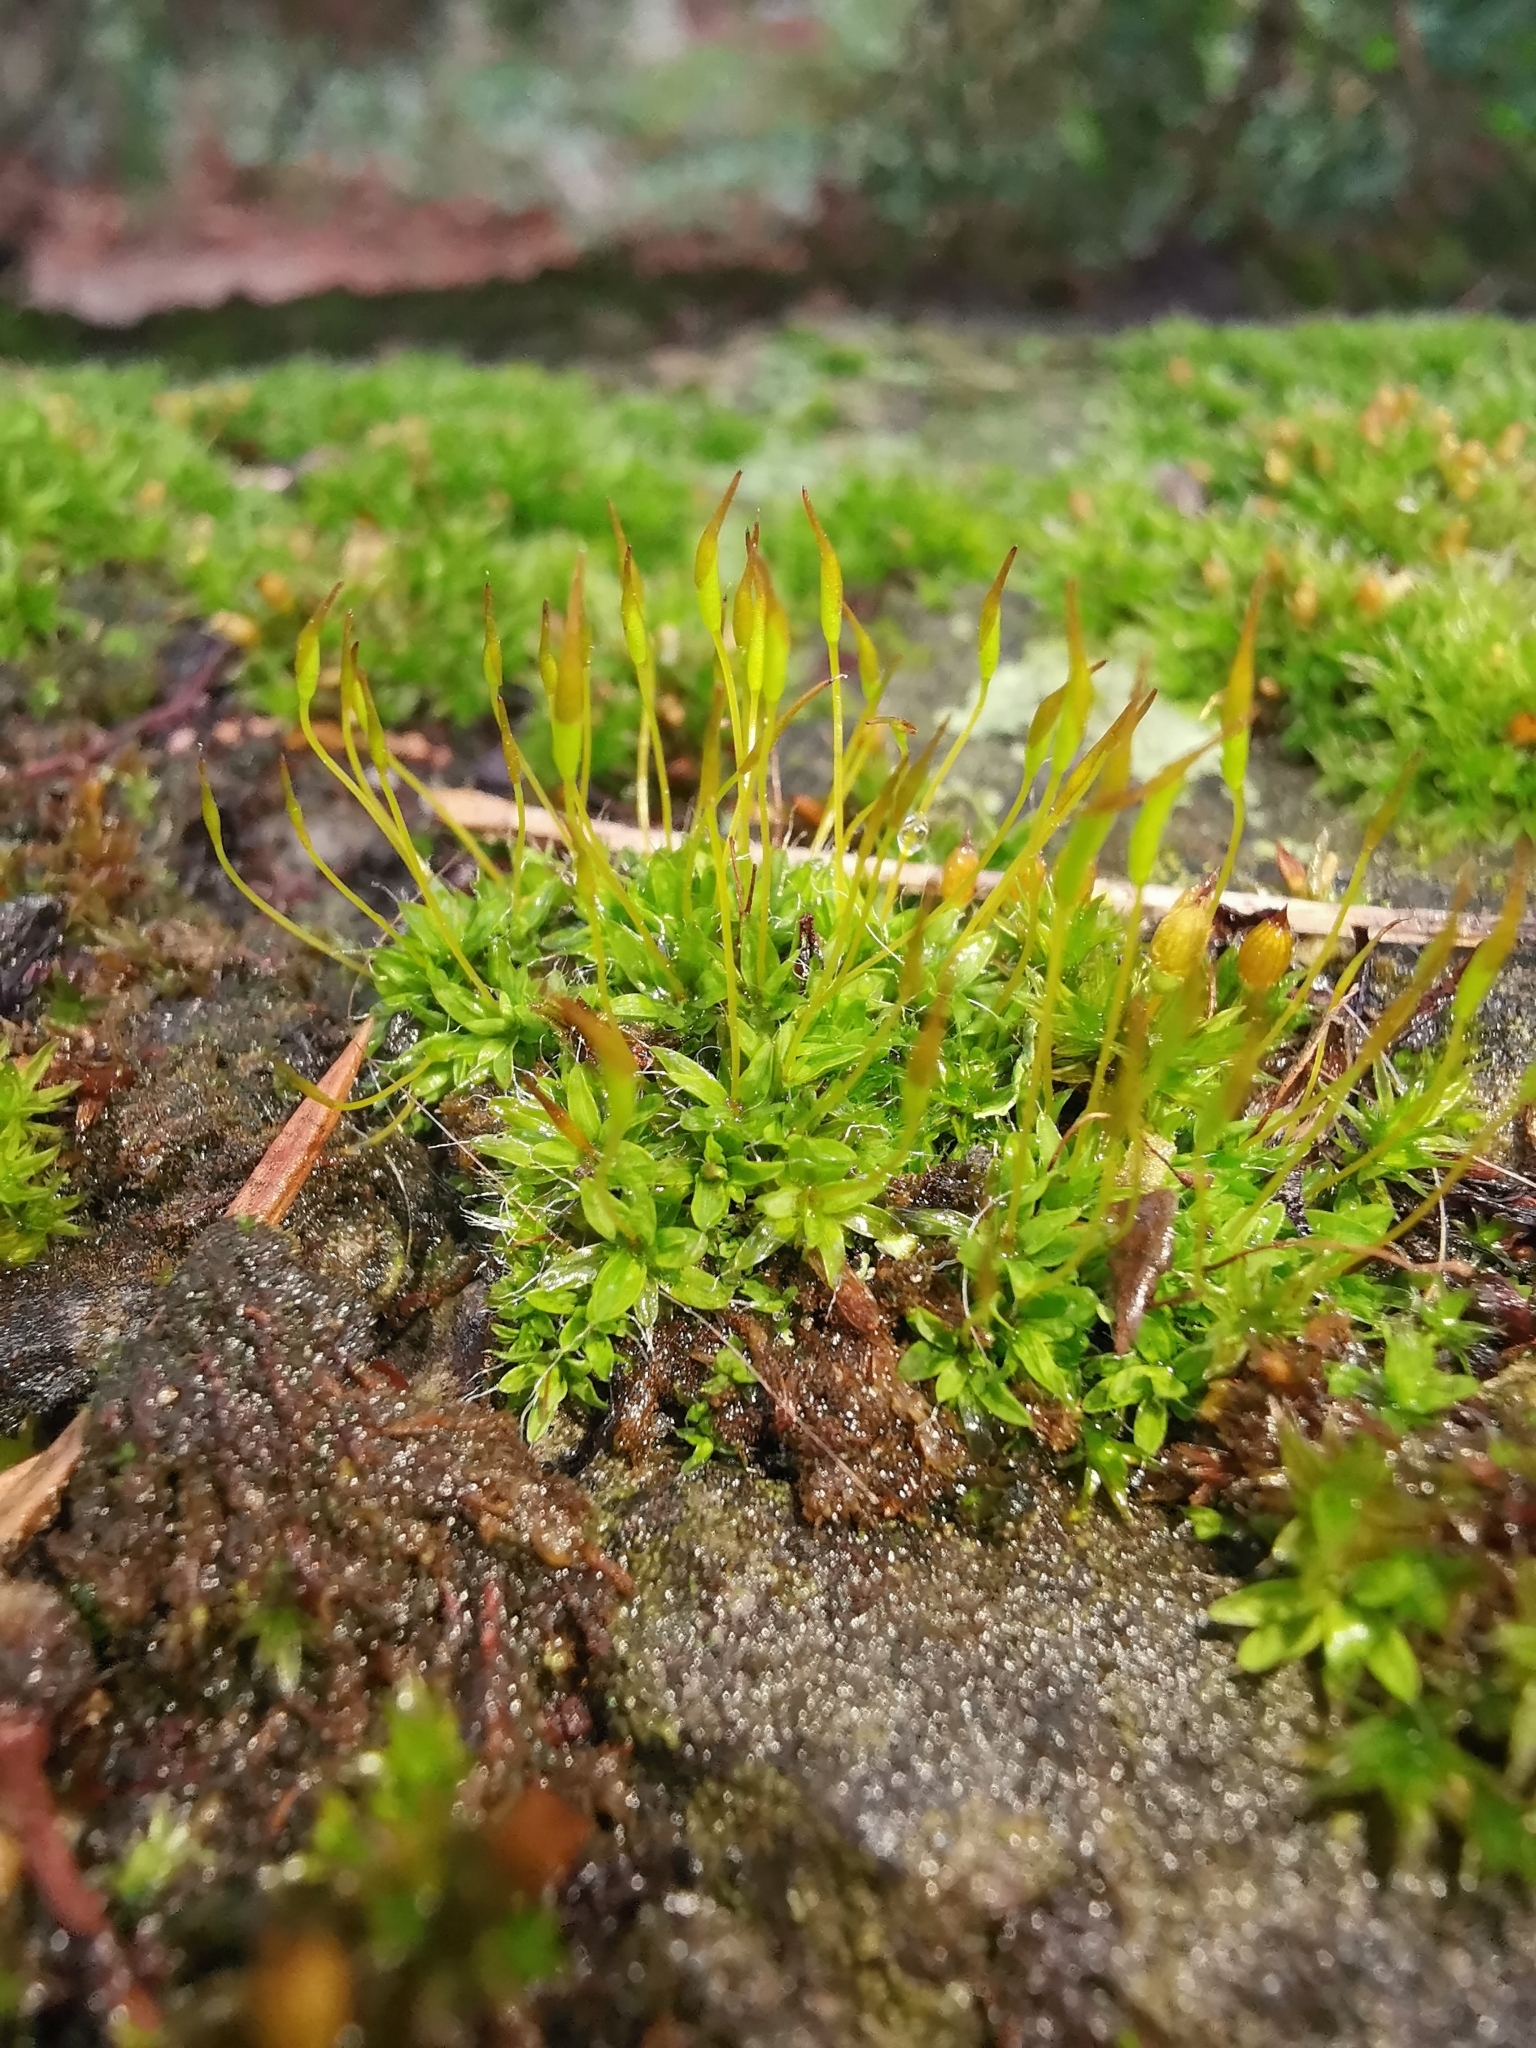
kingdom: Plantae
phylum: Bryophyta
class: Bryopsida
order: Pottiales
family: Pottiaceae
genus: Tortula
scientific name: Tortula muralis
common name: Wall screw-moss
